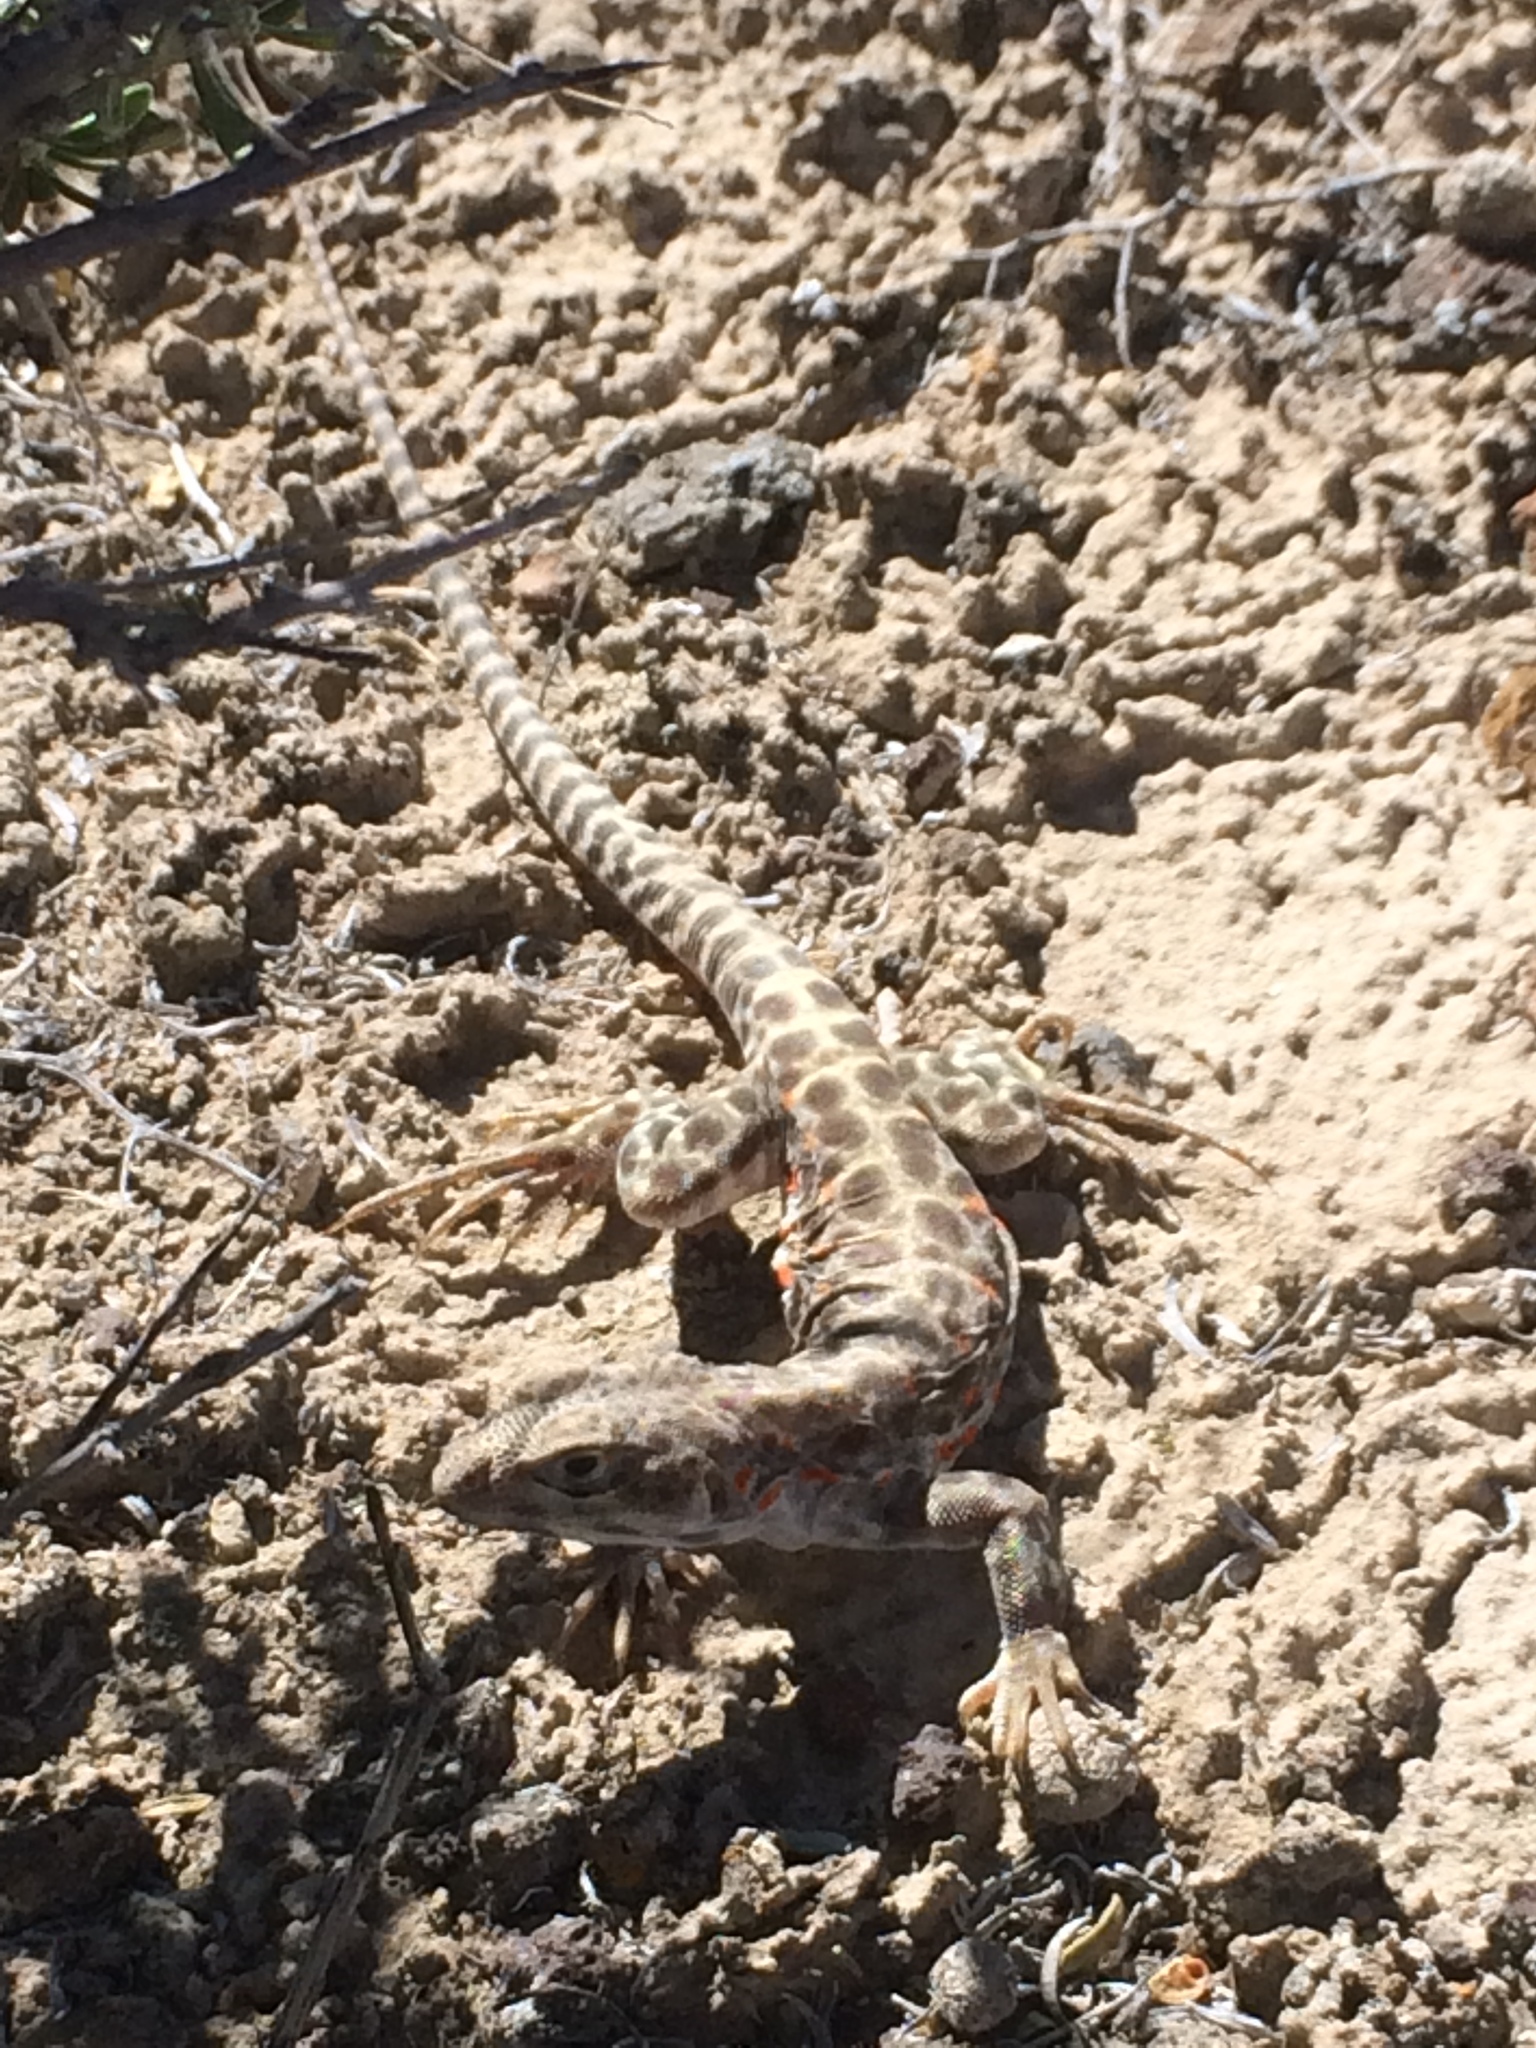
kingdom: Animalia
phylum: Chordata
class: Squamata
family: Crotaphytidae
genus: Gambelia
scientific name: Gambelia wislizenii
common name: Longnose leopard lizard
